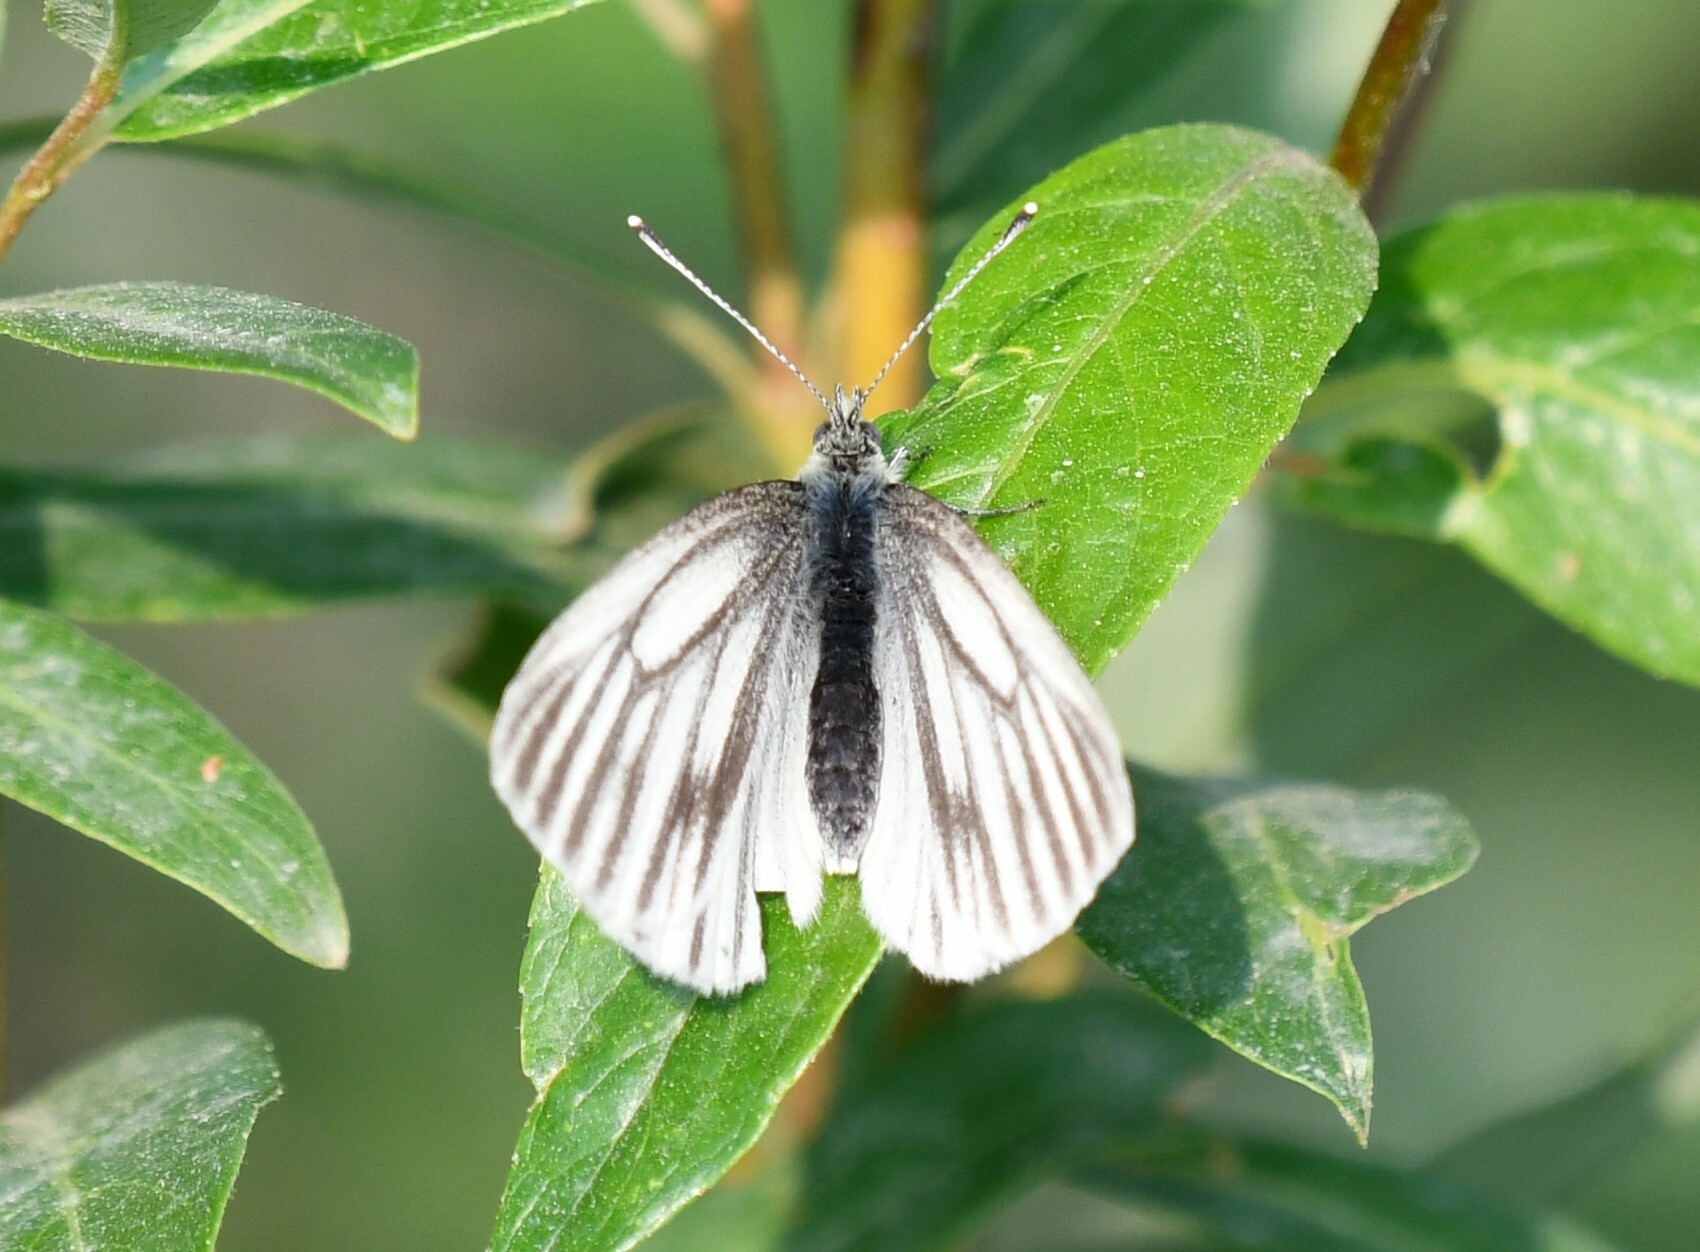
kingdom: Animalia
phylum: Arthropoda
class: Insecta
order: Lepidoptera
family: Pieridae
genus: Pieris
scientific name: Pieris angelika
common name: Arctic white
